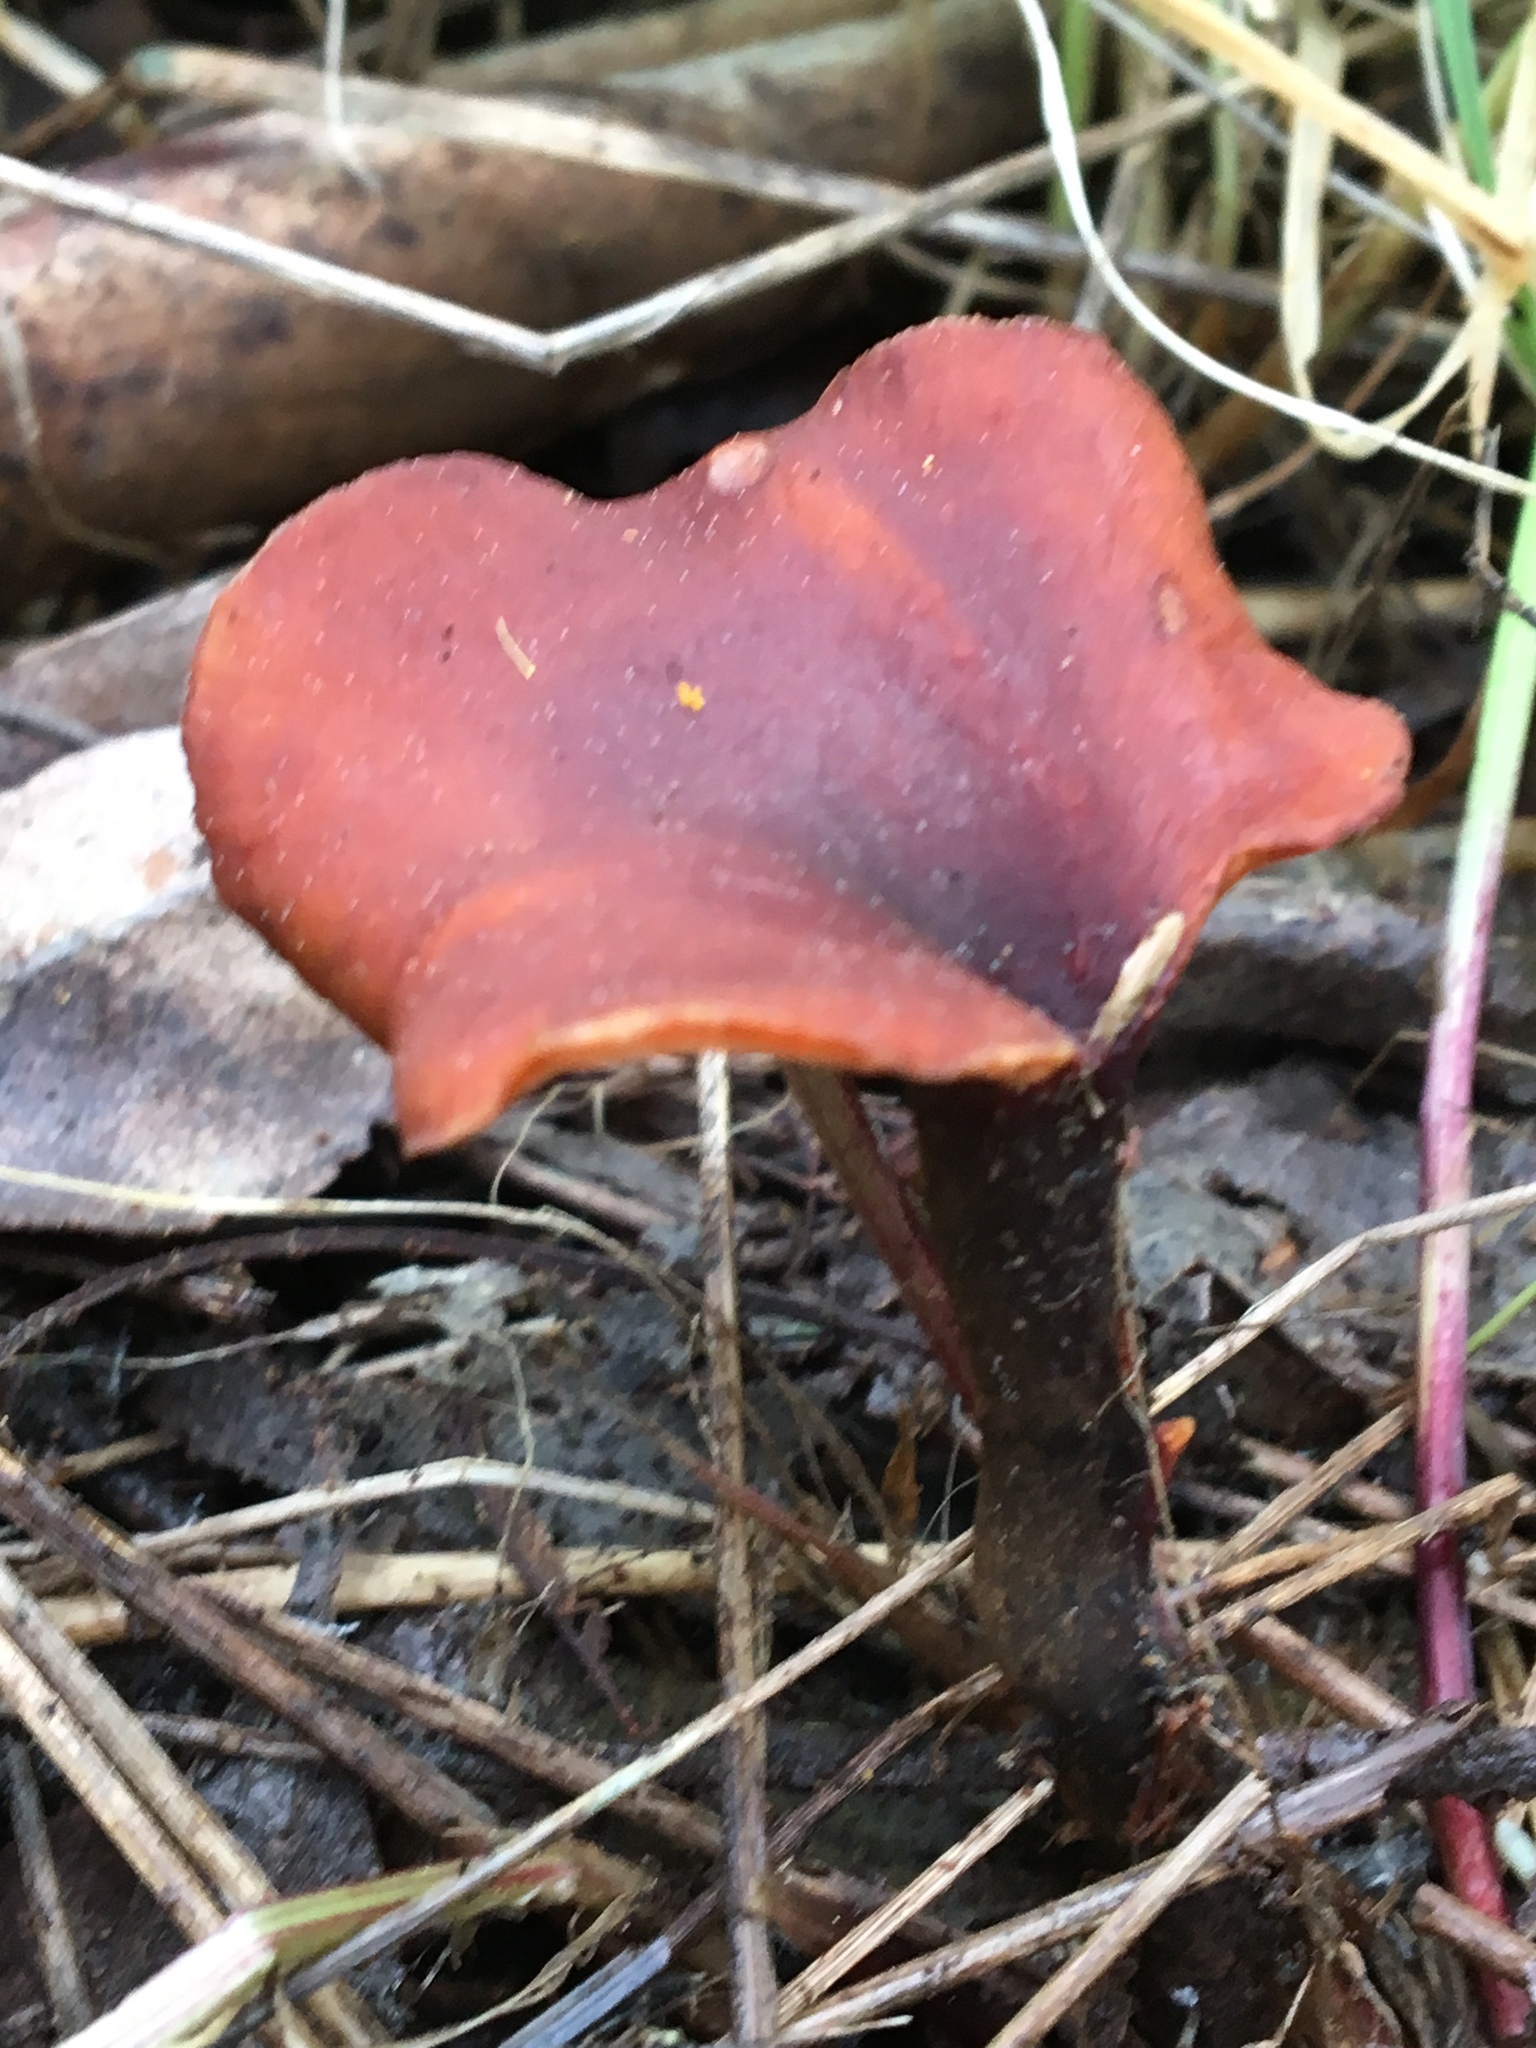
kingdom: Fungi
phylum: Basidiomycota
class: Agaricomycetes
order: Polyporales
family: Polyporaceae
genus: Picipes
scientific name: Picipes melanopus
